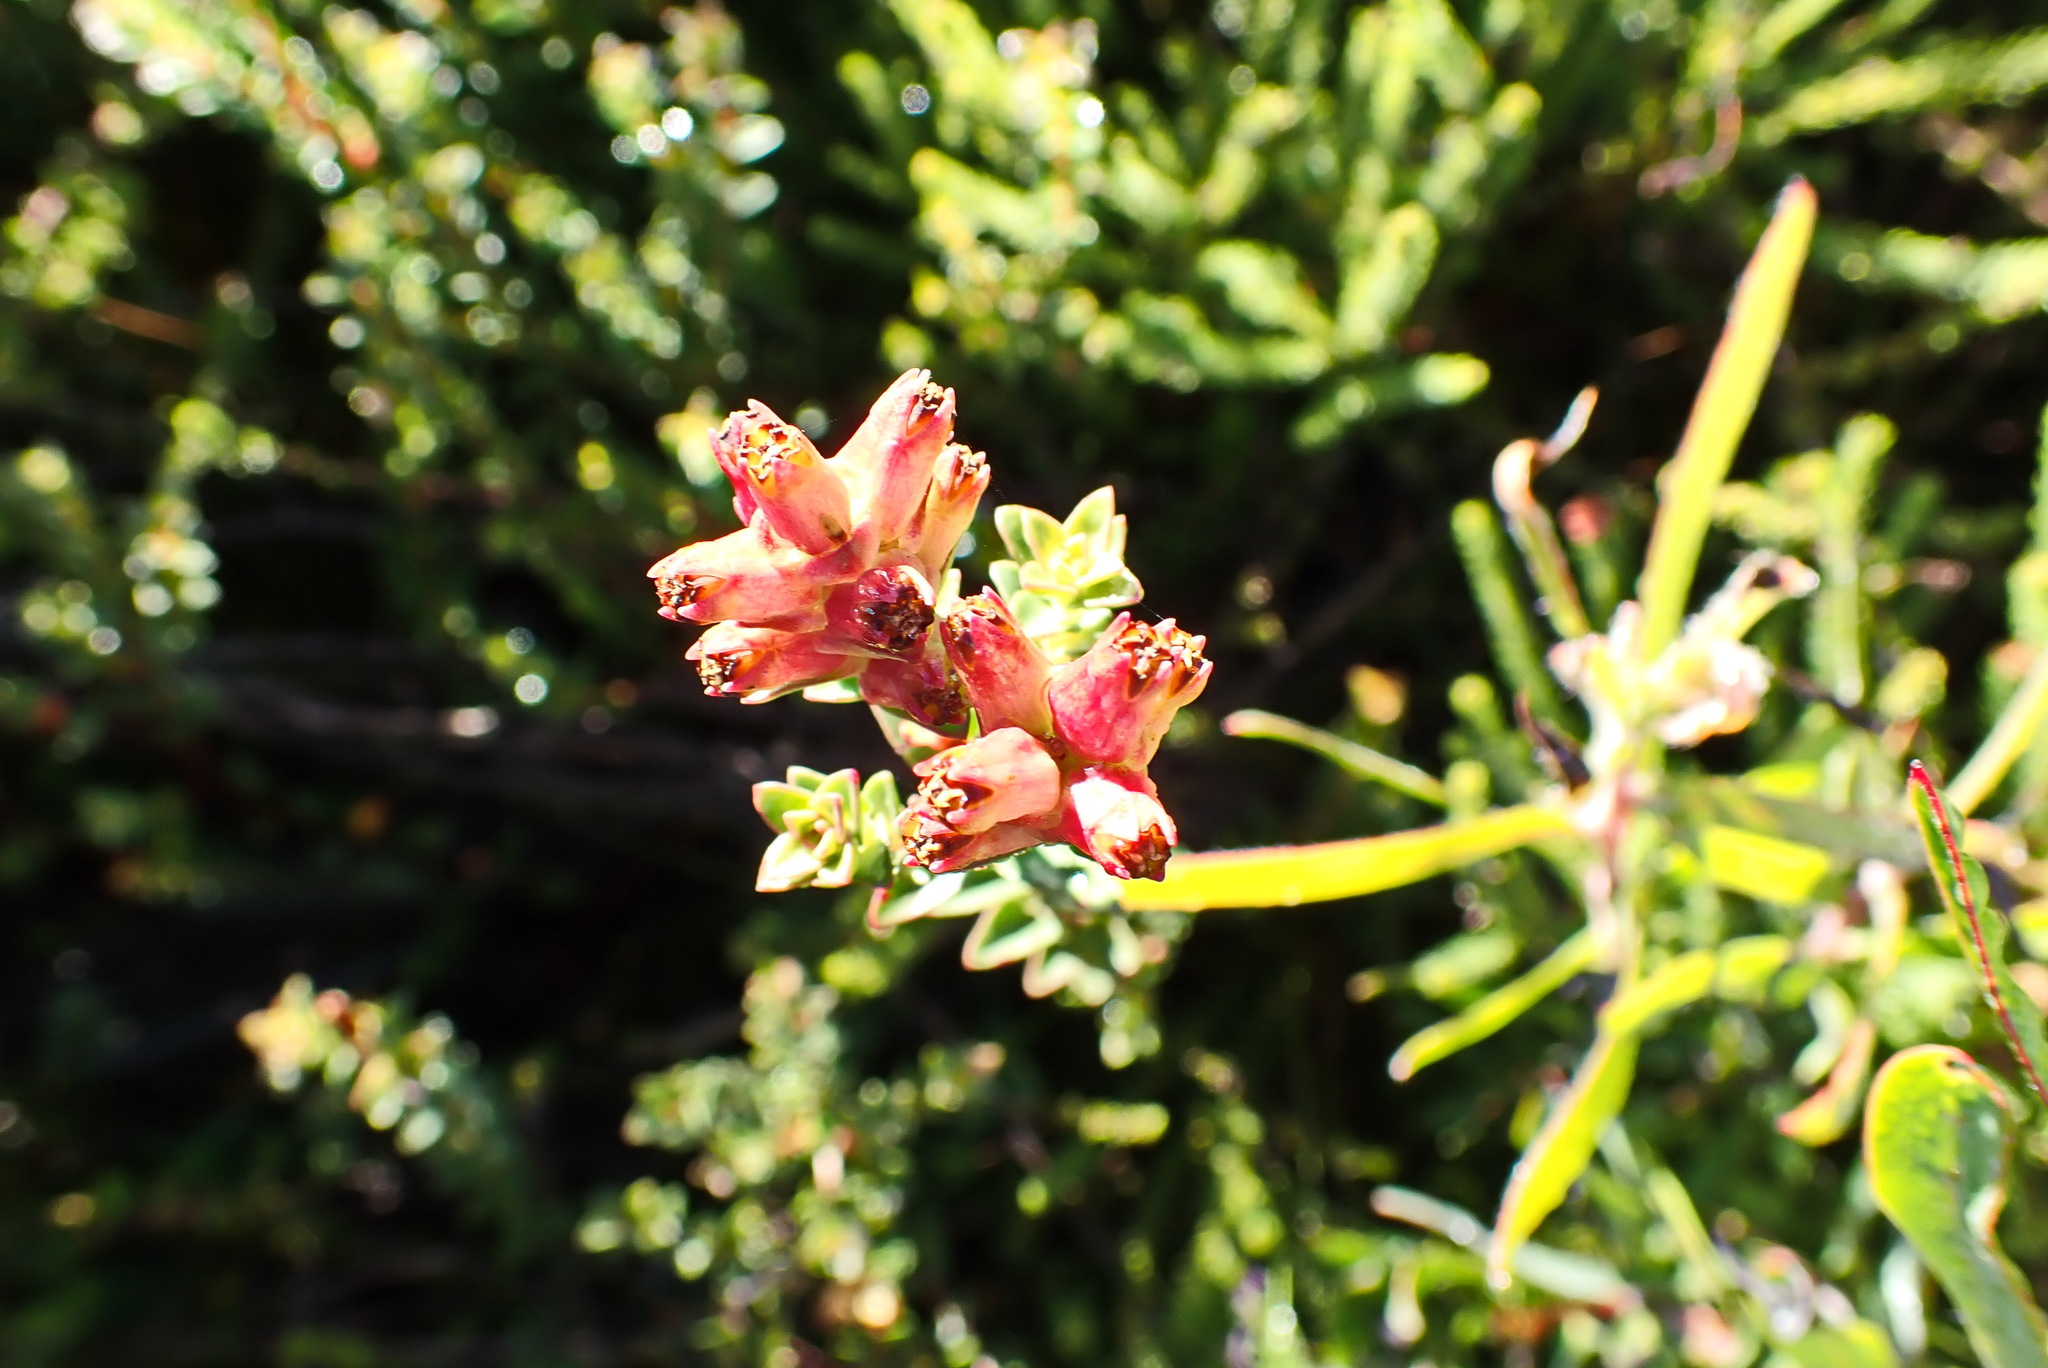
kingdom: Plantae
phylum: Tracheophyta
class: Magnoliopsida
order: Myrtales
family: Penaeaceae
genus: Penaea
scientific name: Penaea cneorum
